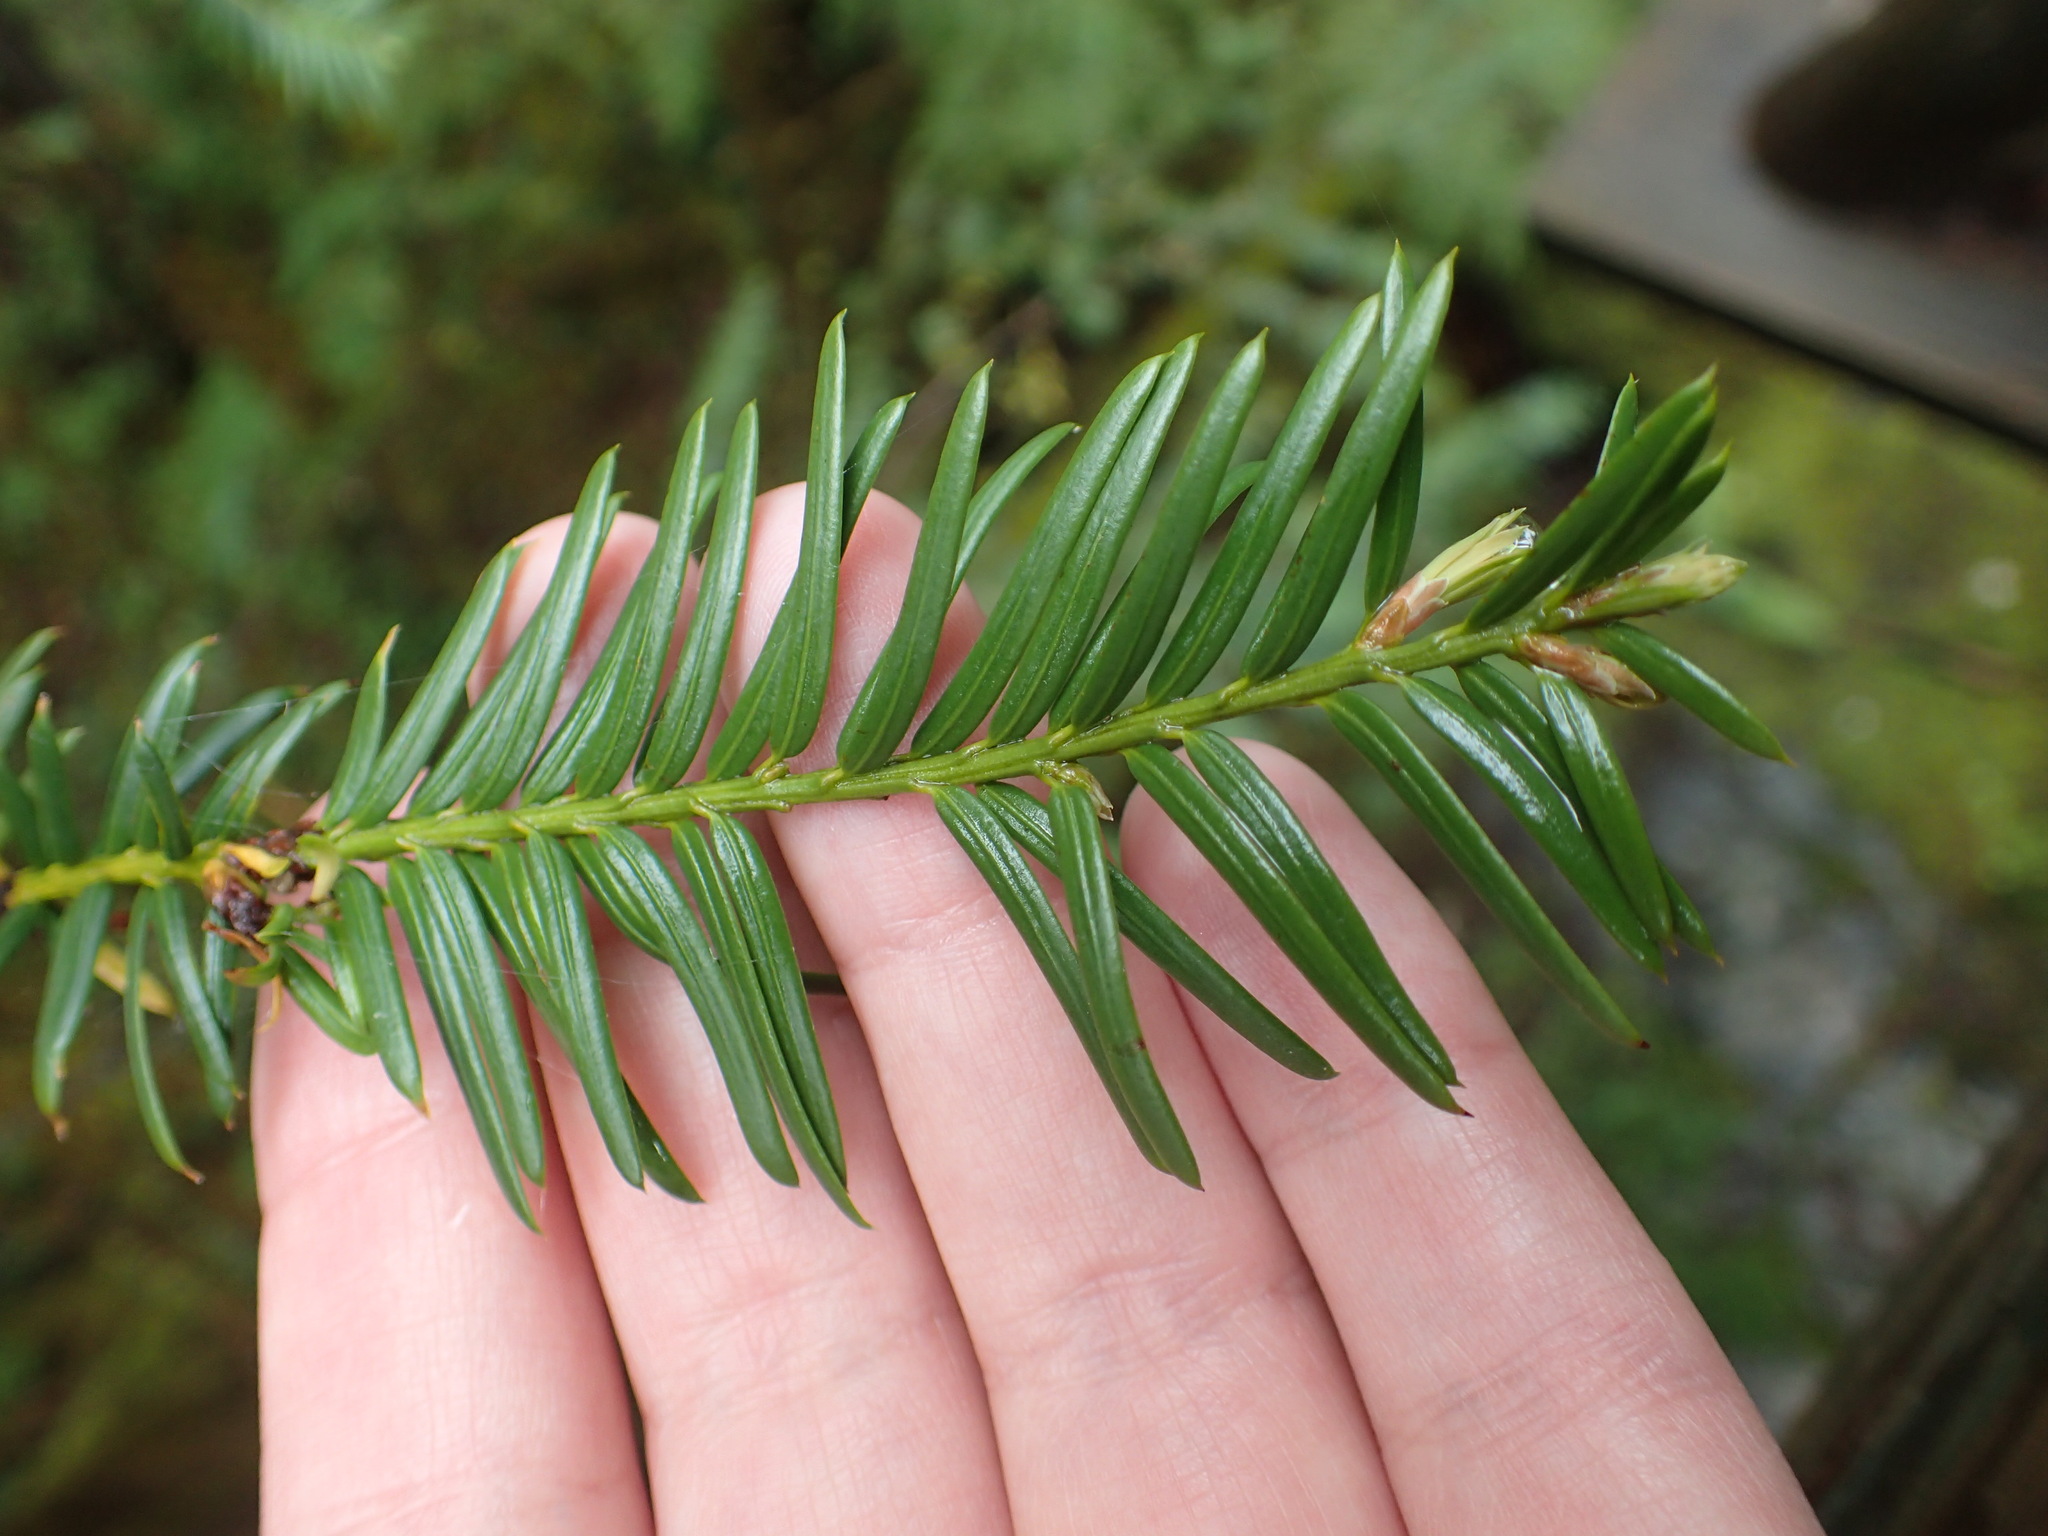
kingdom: Plantae
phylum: Tracheophyta
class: Pinopsida
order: Pinales
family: Taxaceae
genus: Taxus
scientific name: Taxus brevifolia
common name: Pacific yew
